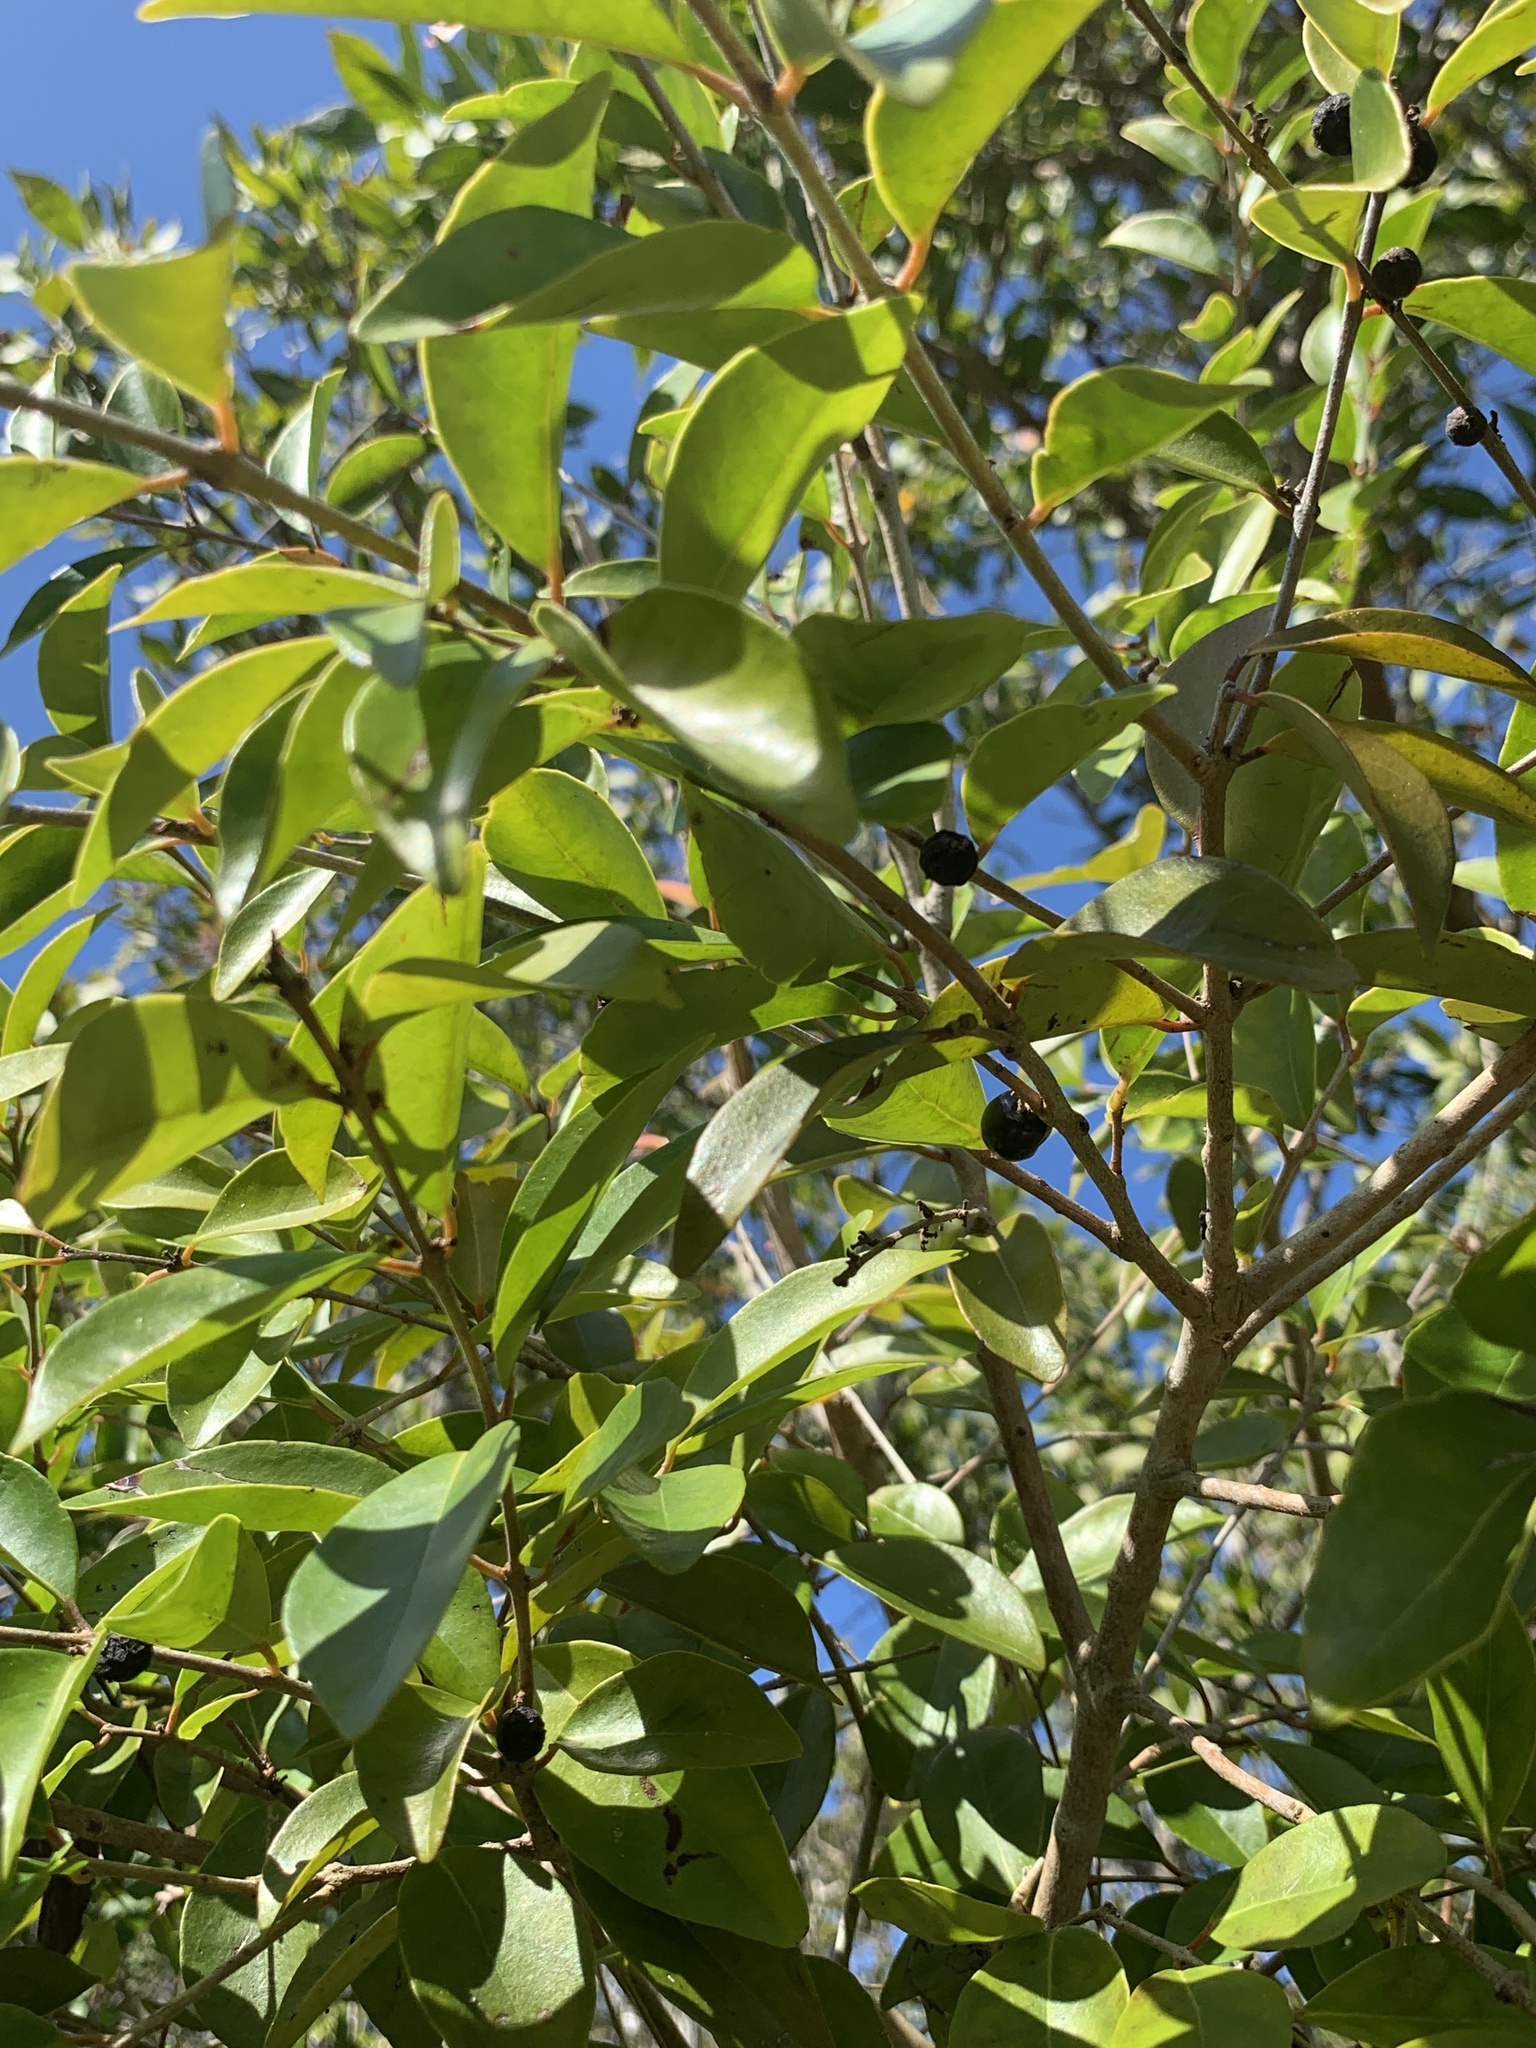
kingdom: Plantae
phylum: Tracheophyta
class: Magnoliopsida
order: Myrtales
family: Myrtaceae
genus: Eugenia
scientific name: Eugenia axillaris
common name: Choaky berry
